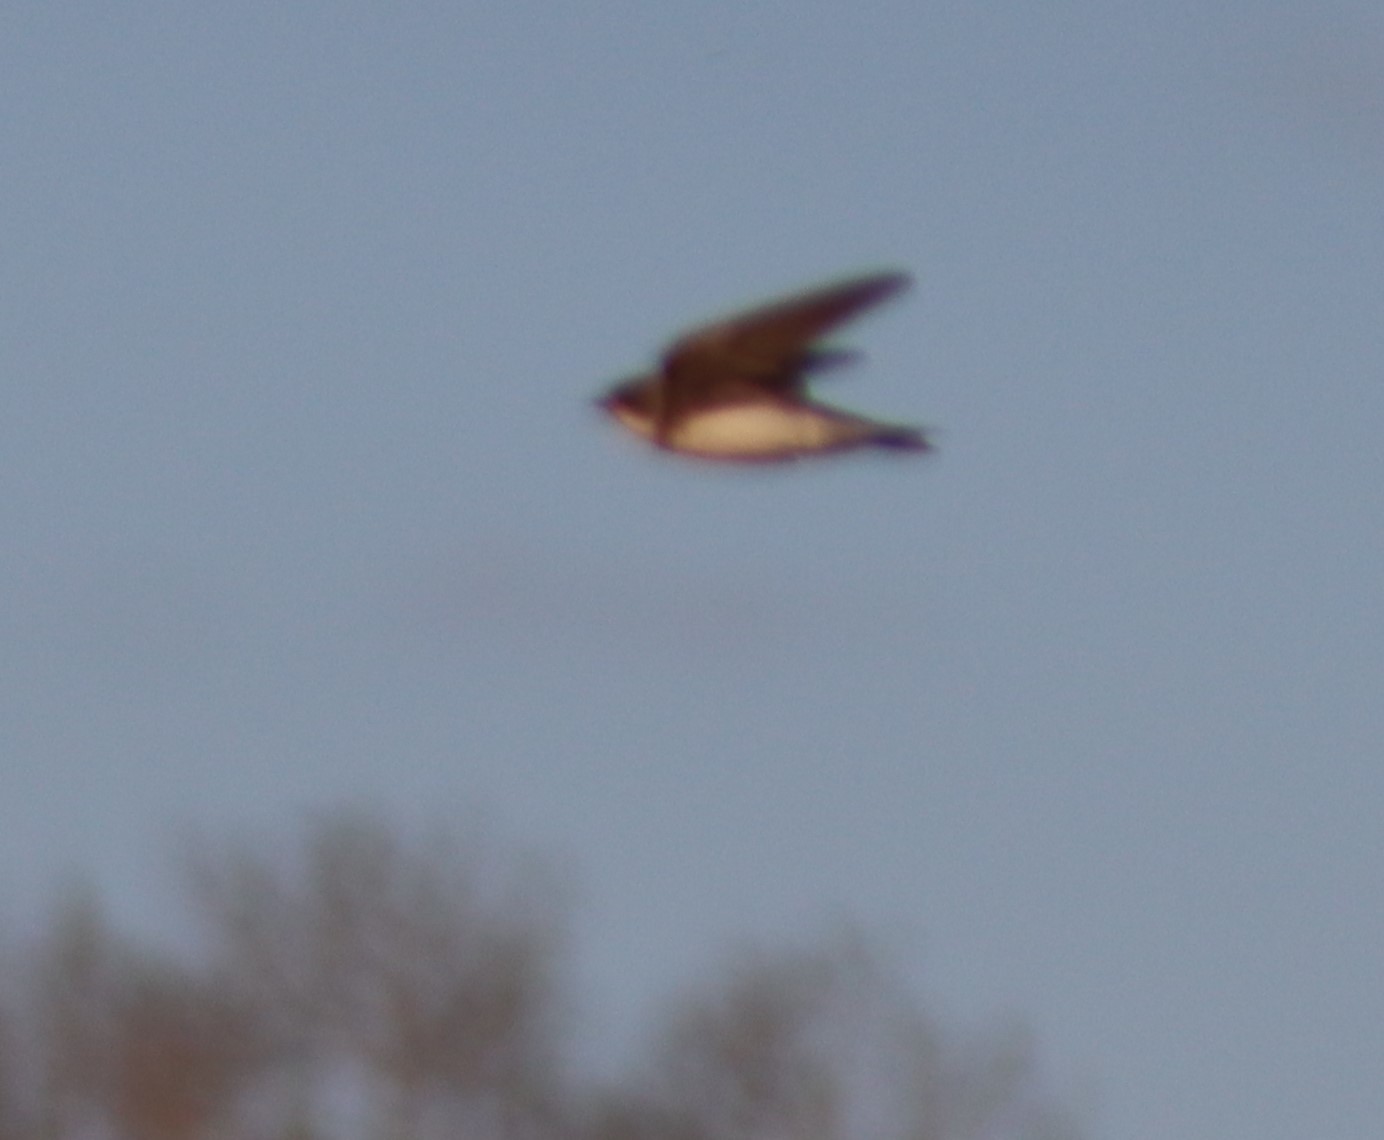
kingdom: Animalia
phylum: Chordata
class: Aves
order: Passeriformes
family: Hirundinidae
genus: Riparia
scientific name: Riparia riparia
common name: Sand martin
